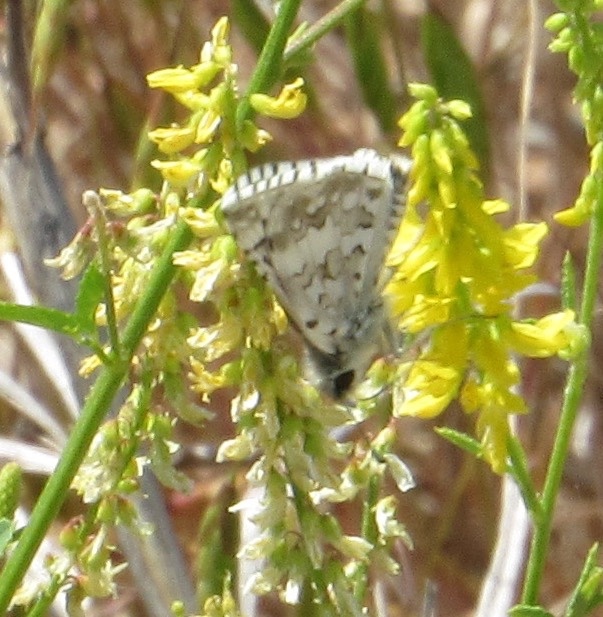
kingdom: Animalia
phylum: Arthropoda
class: Insecta
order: Lepidoptera
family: Hesperiidae
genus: Burnsius
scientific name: Burnsius communis
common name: Common checkered-skipper
